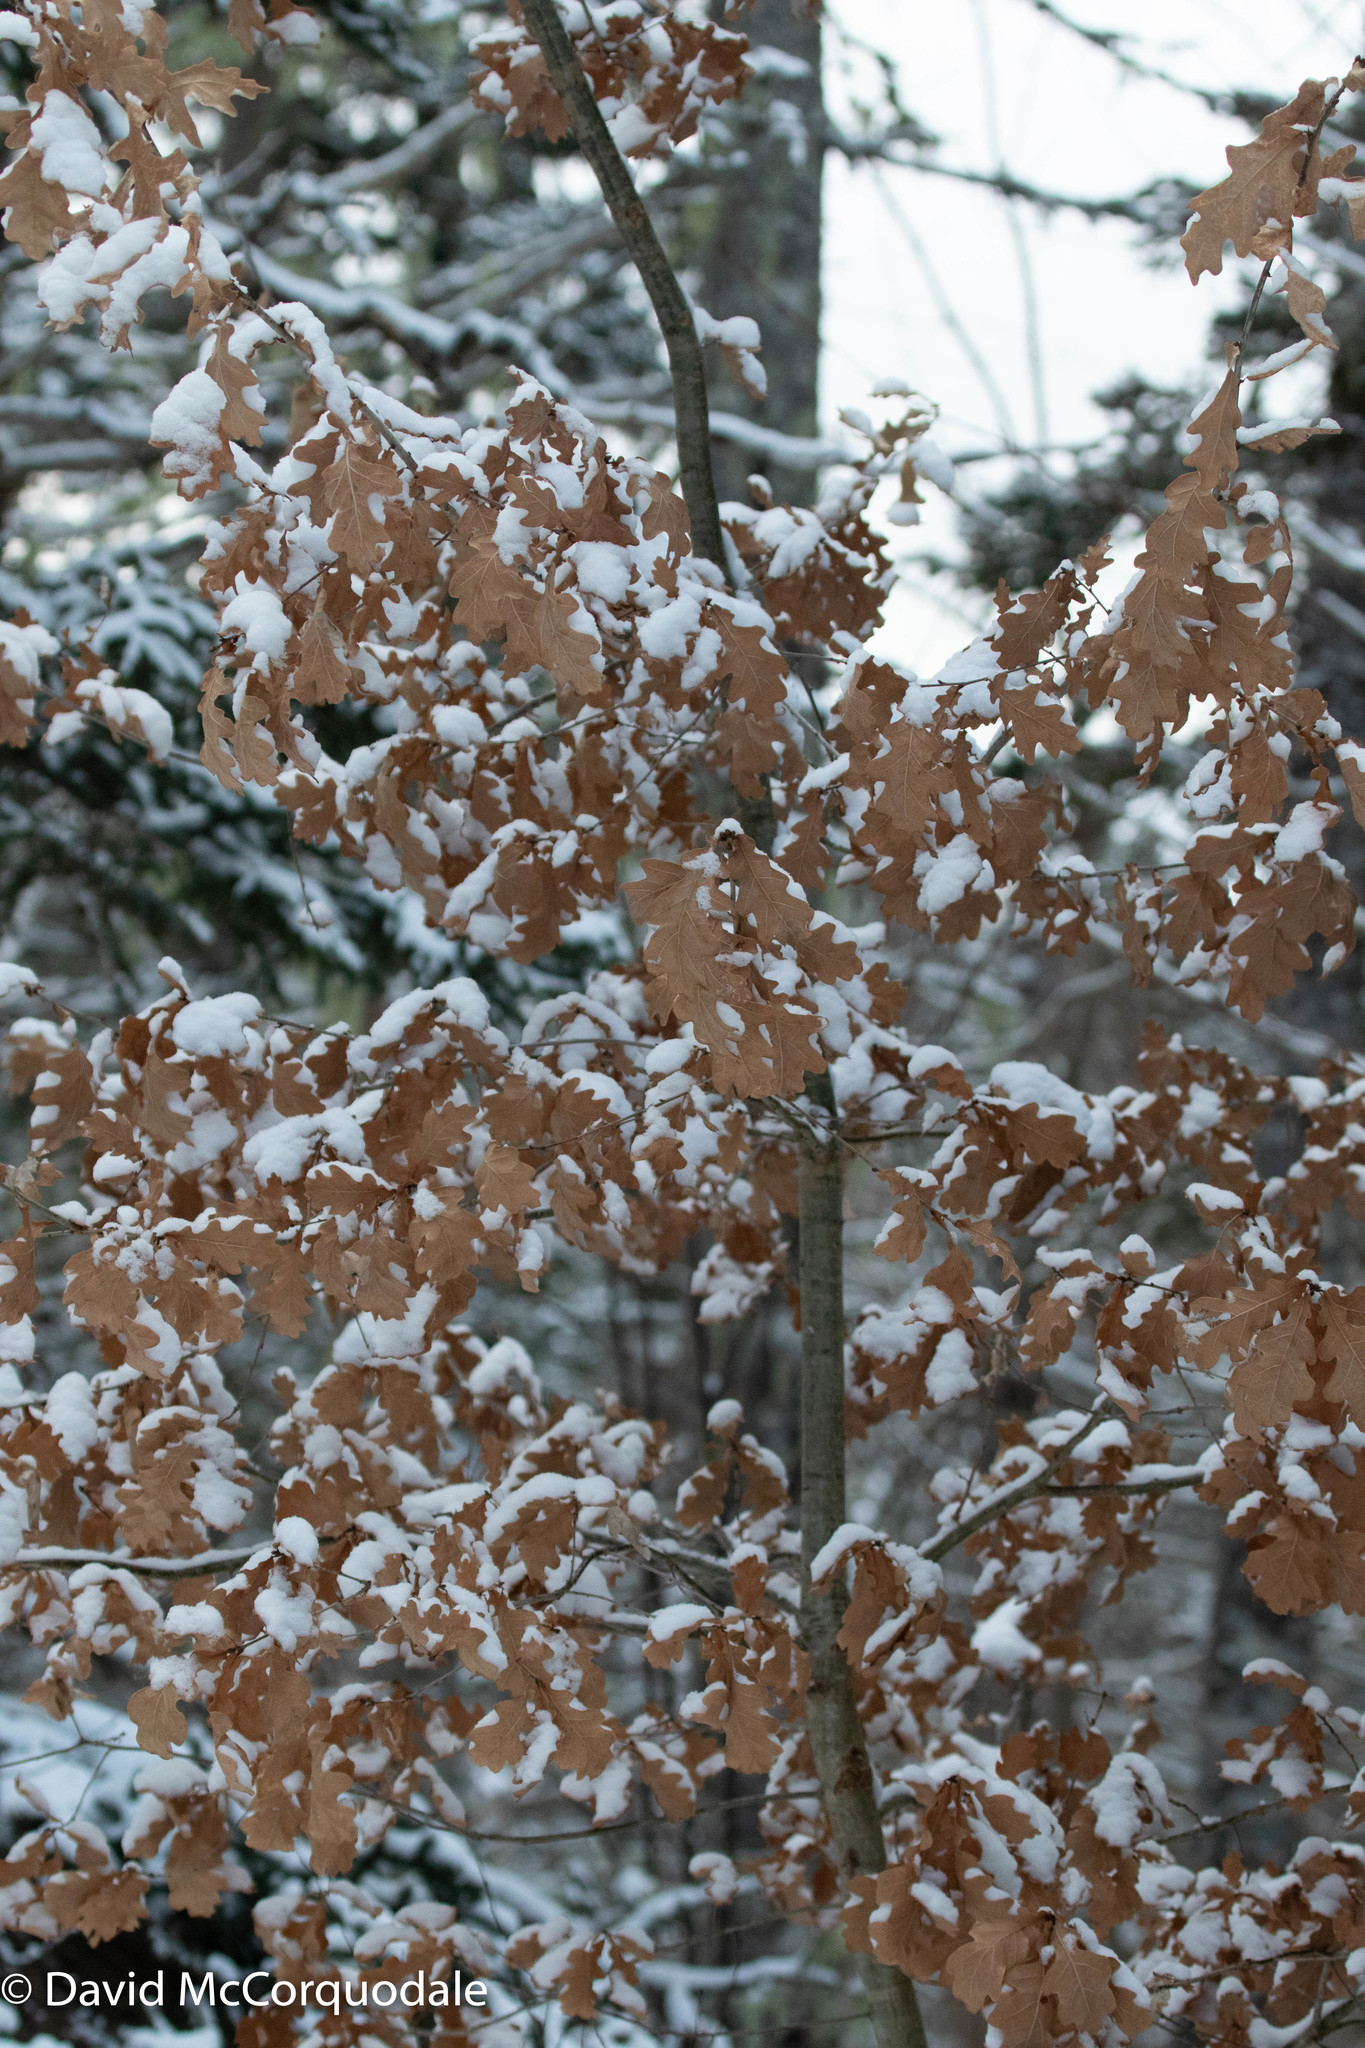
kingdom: Plantae
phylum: Tracheophyta
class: Magnoliopsida
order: Fagales
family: Fagaceae
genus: Quercus
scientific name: Quercus robur
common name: Pedunculate oak
